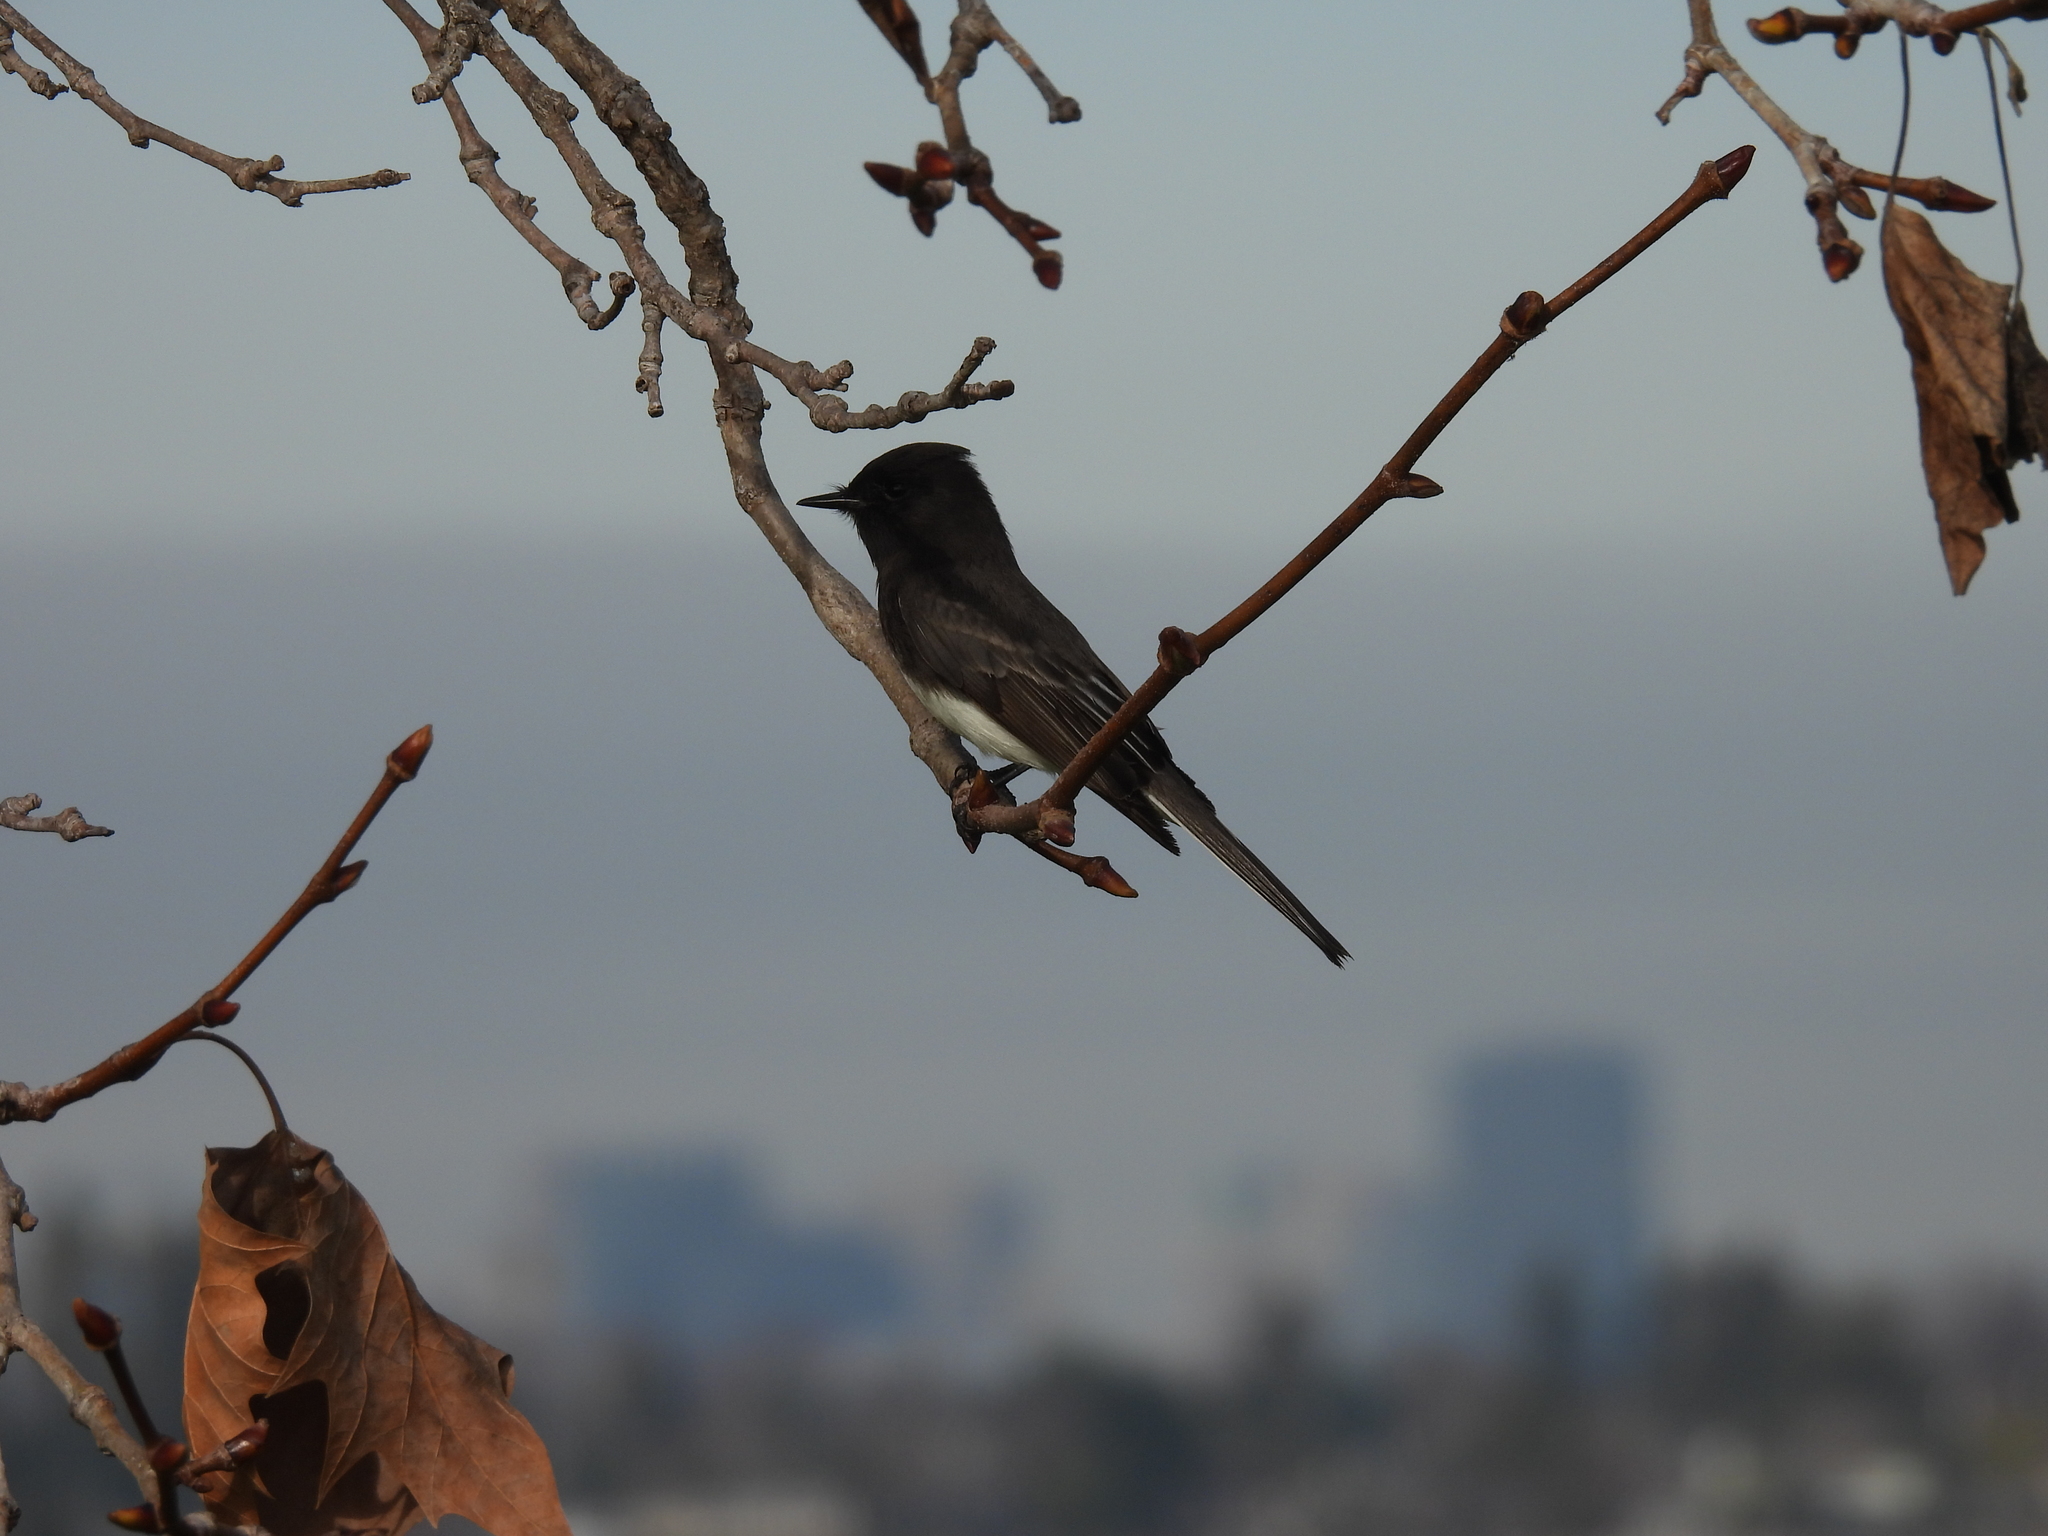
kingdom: Animalia
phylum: Chordata
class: Aves
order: Passeriformes
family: Tyrannidae
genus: Sayornis
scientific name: Sayornis nigricans
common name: Black phoebe
